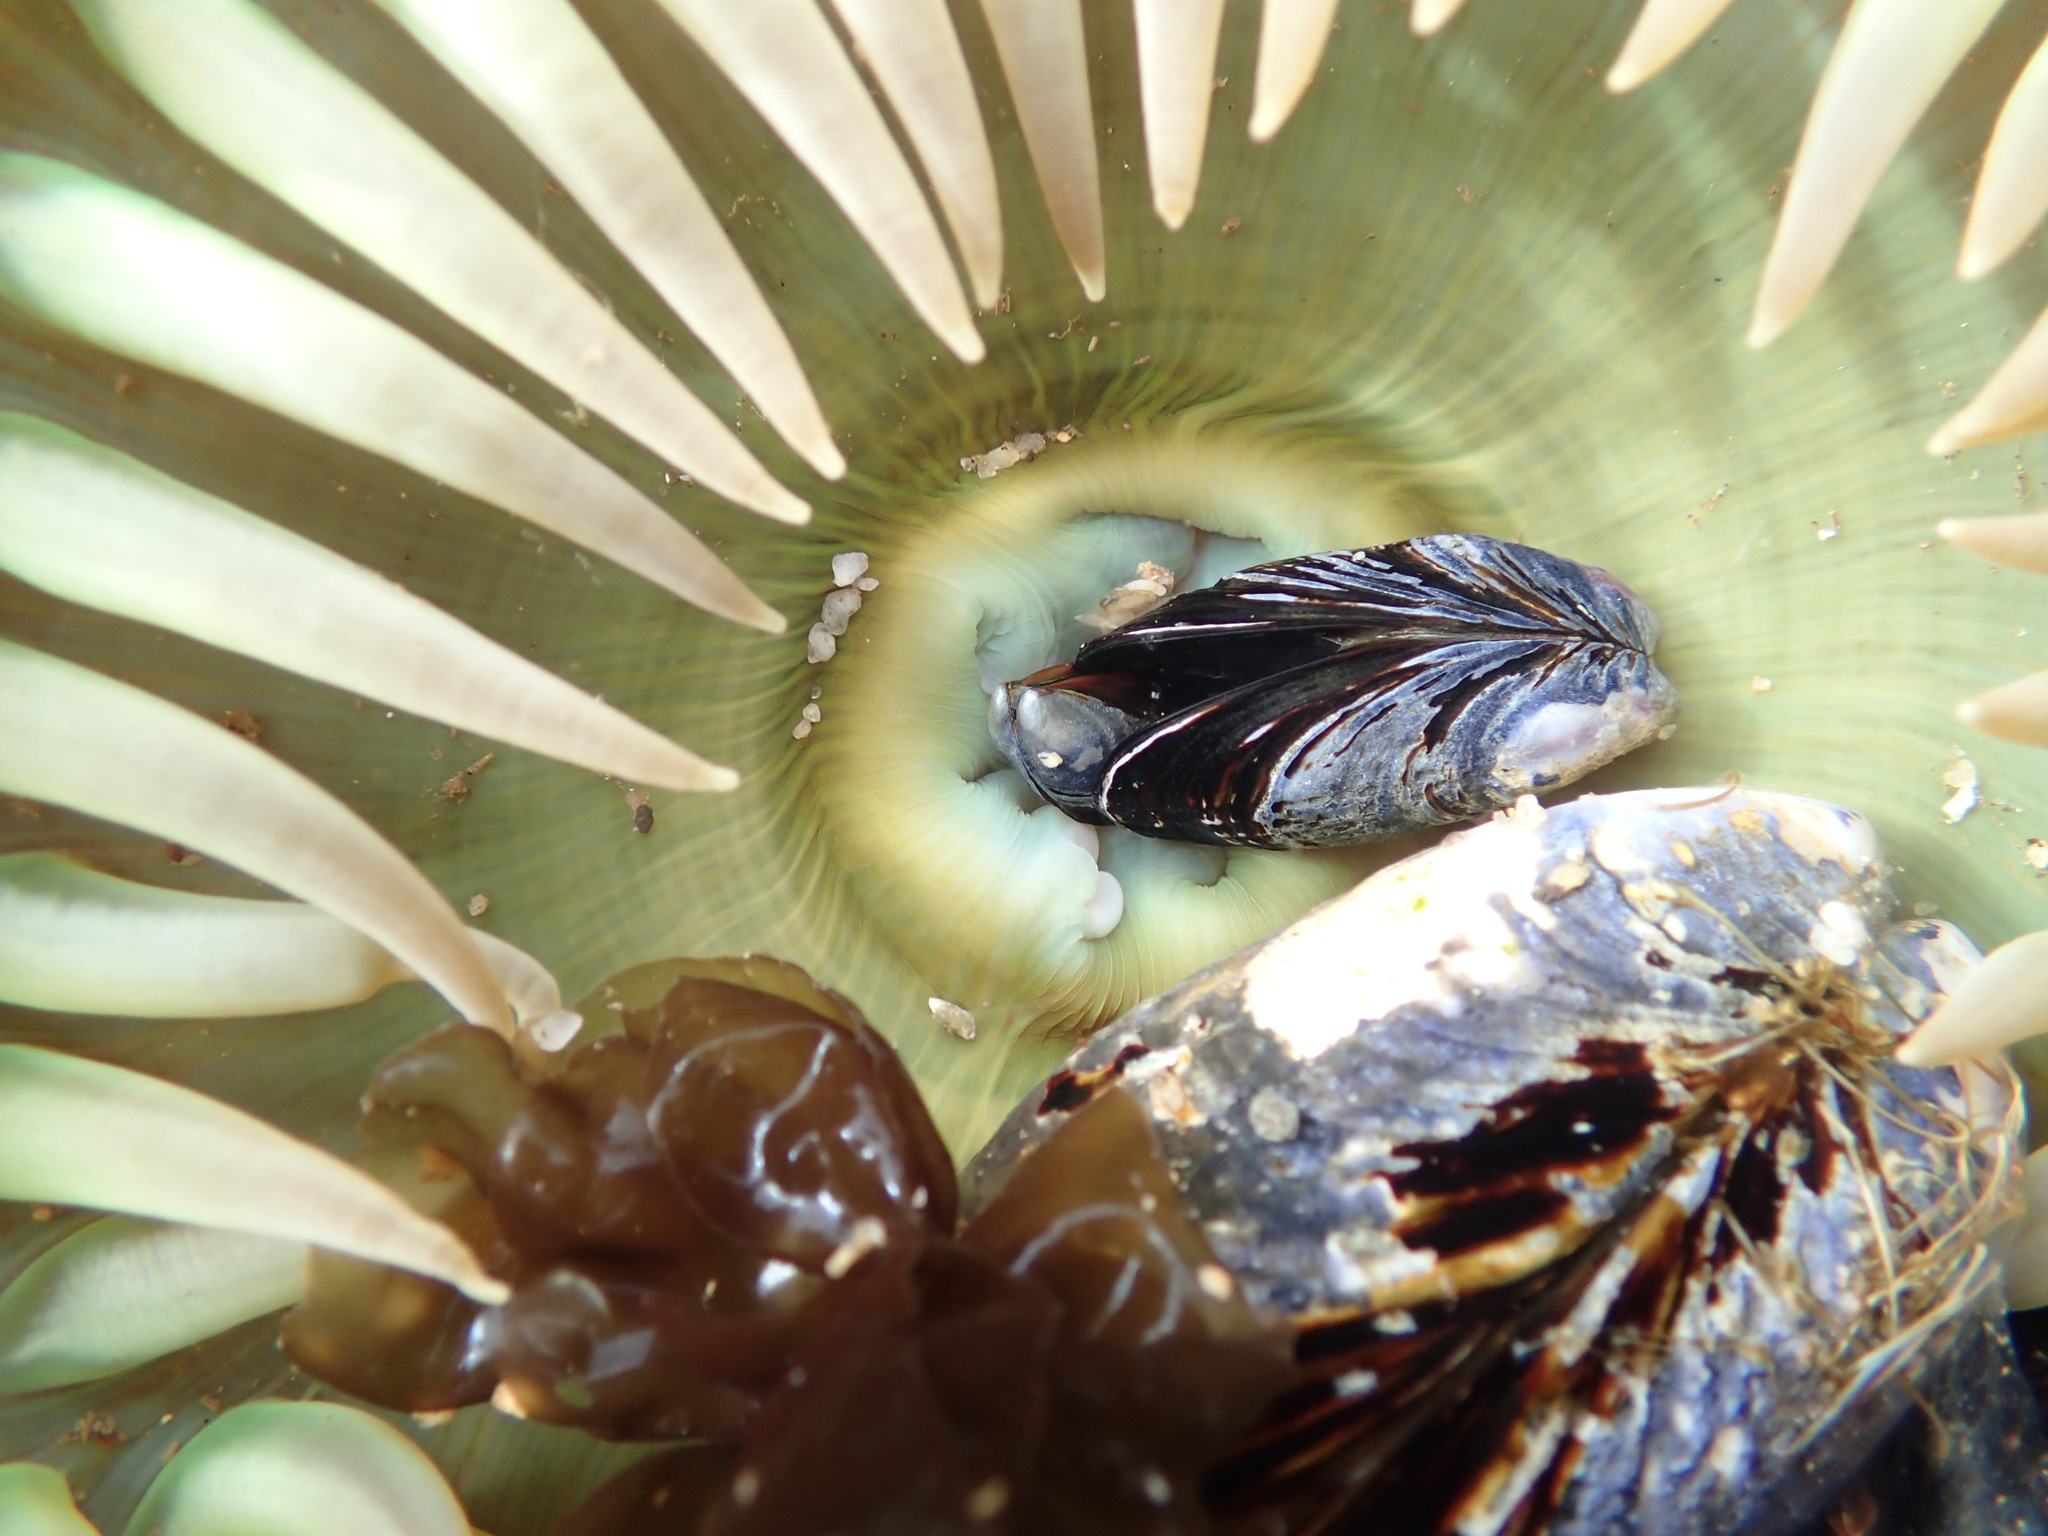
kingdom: Animalia
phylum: Cnidaria
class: Anthozoa
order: Actiniaria
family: Actiniidae
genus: Anthopleura
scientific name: Anthopleura xanthogrammica
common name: Giant green anemone
